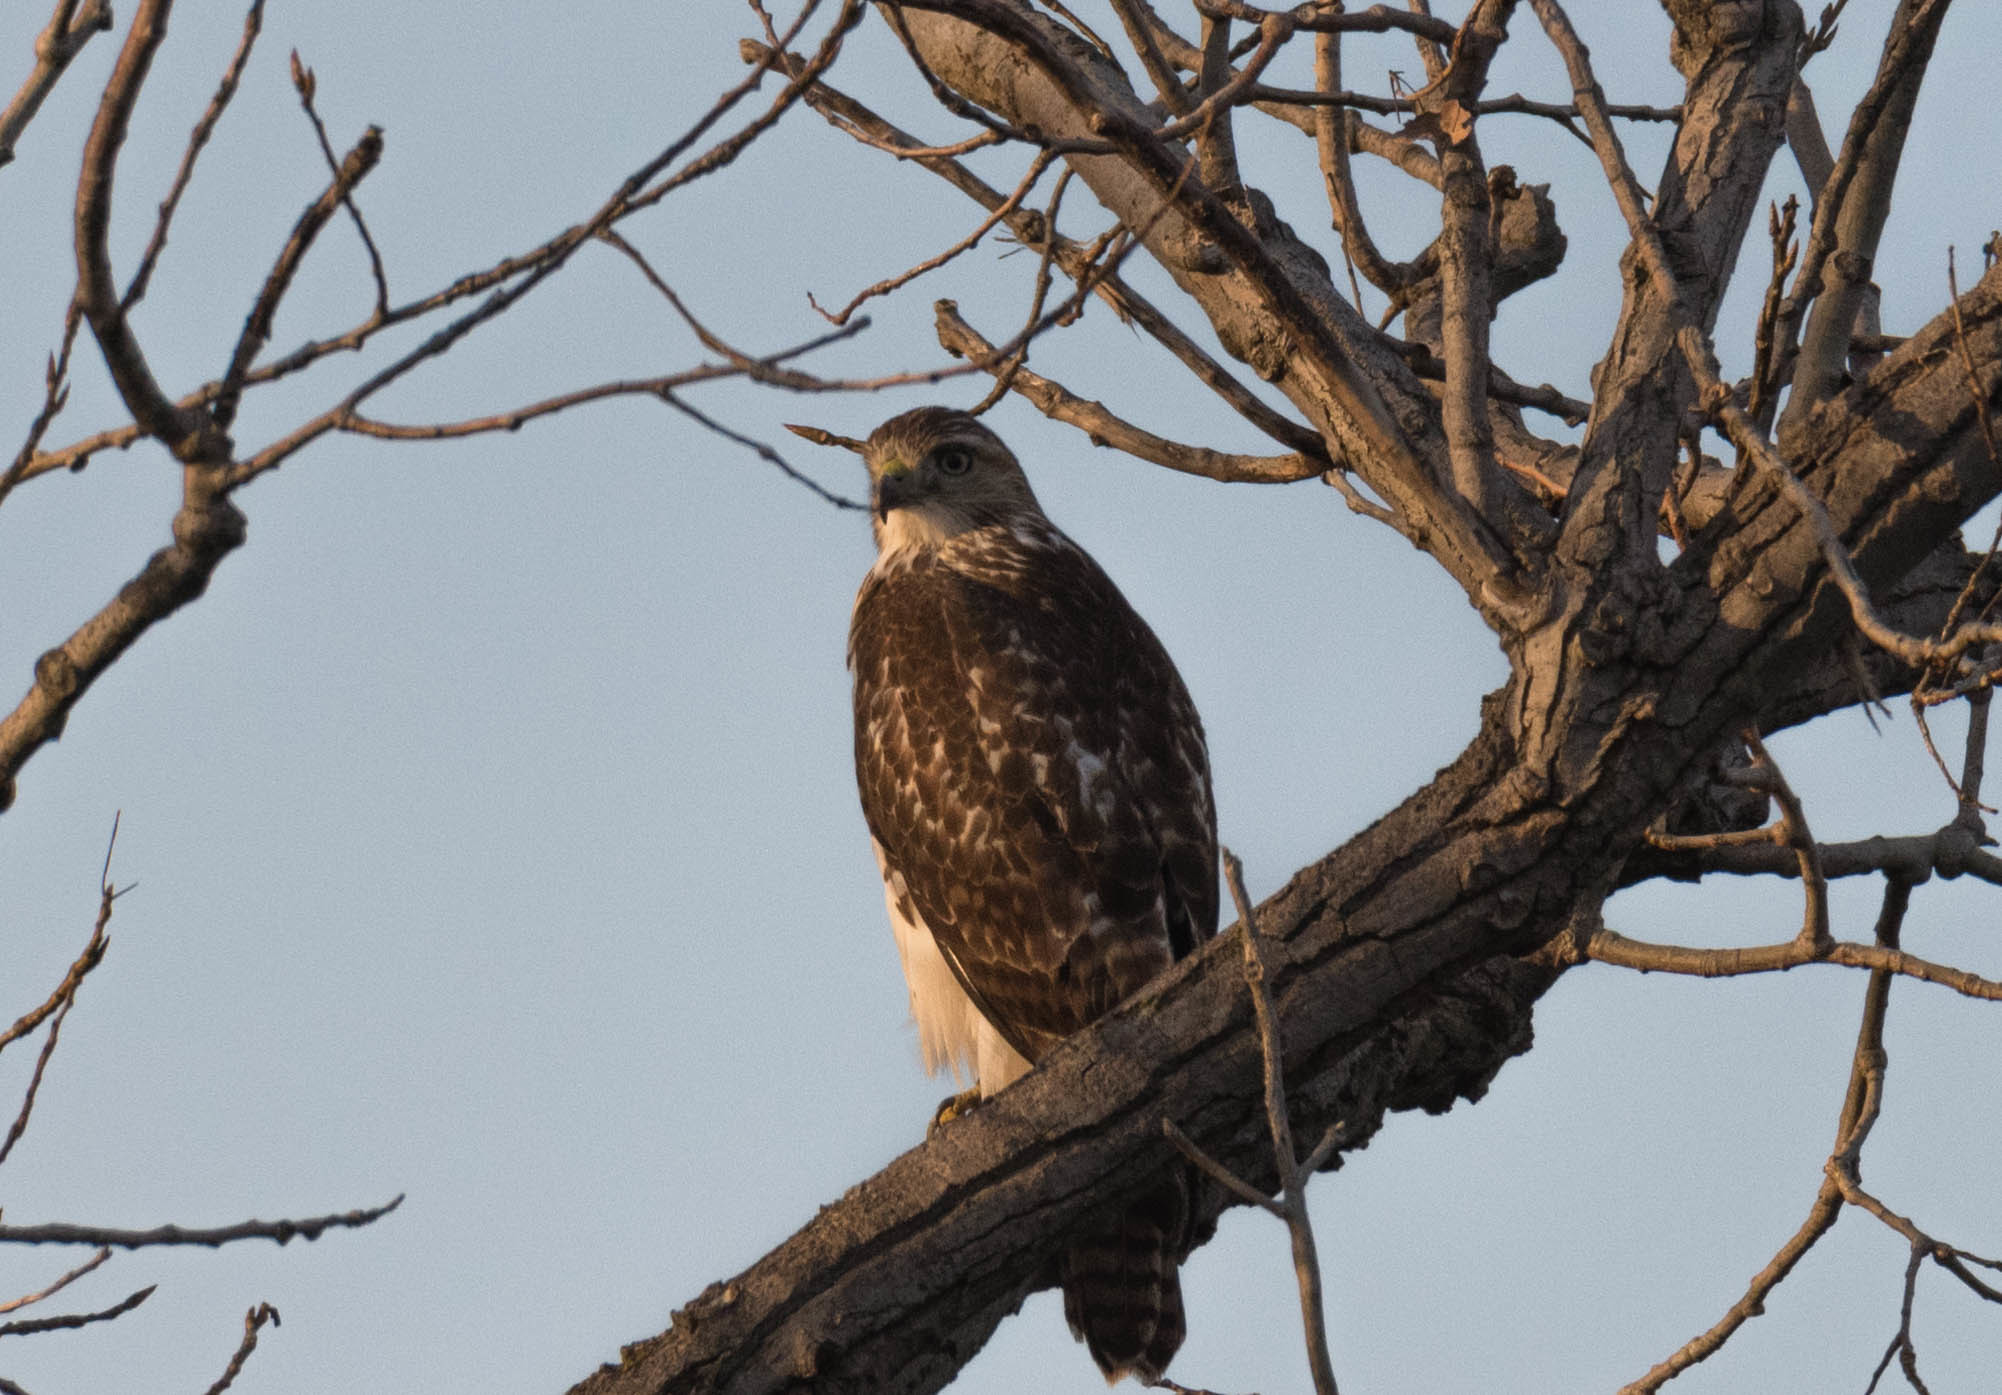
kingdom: Animalia
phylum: Chordata
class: Aves
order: Accipitriformes
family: Accipitridae
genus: Buteo
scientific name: Buteo jamaicensis
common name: Red-tailed hawk
